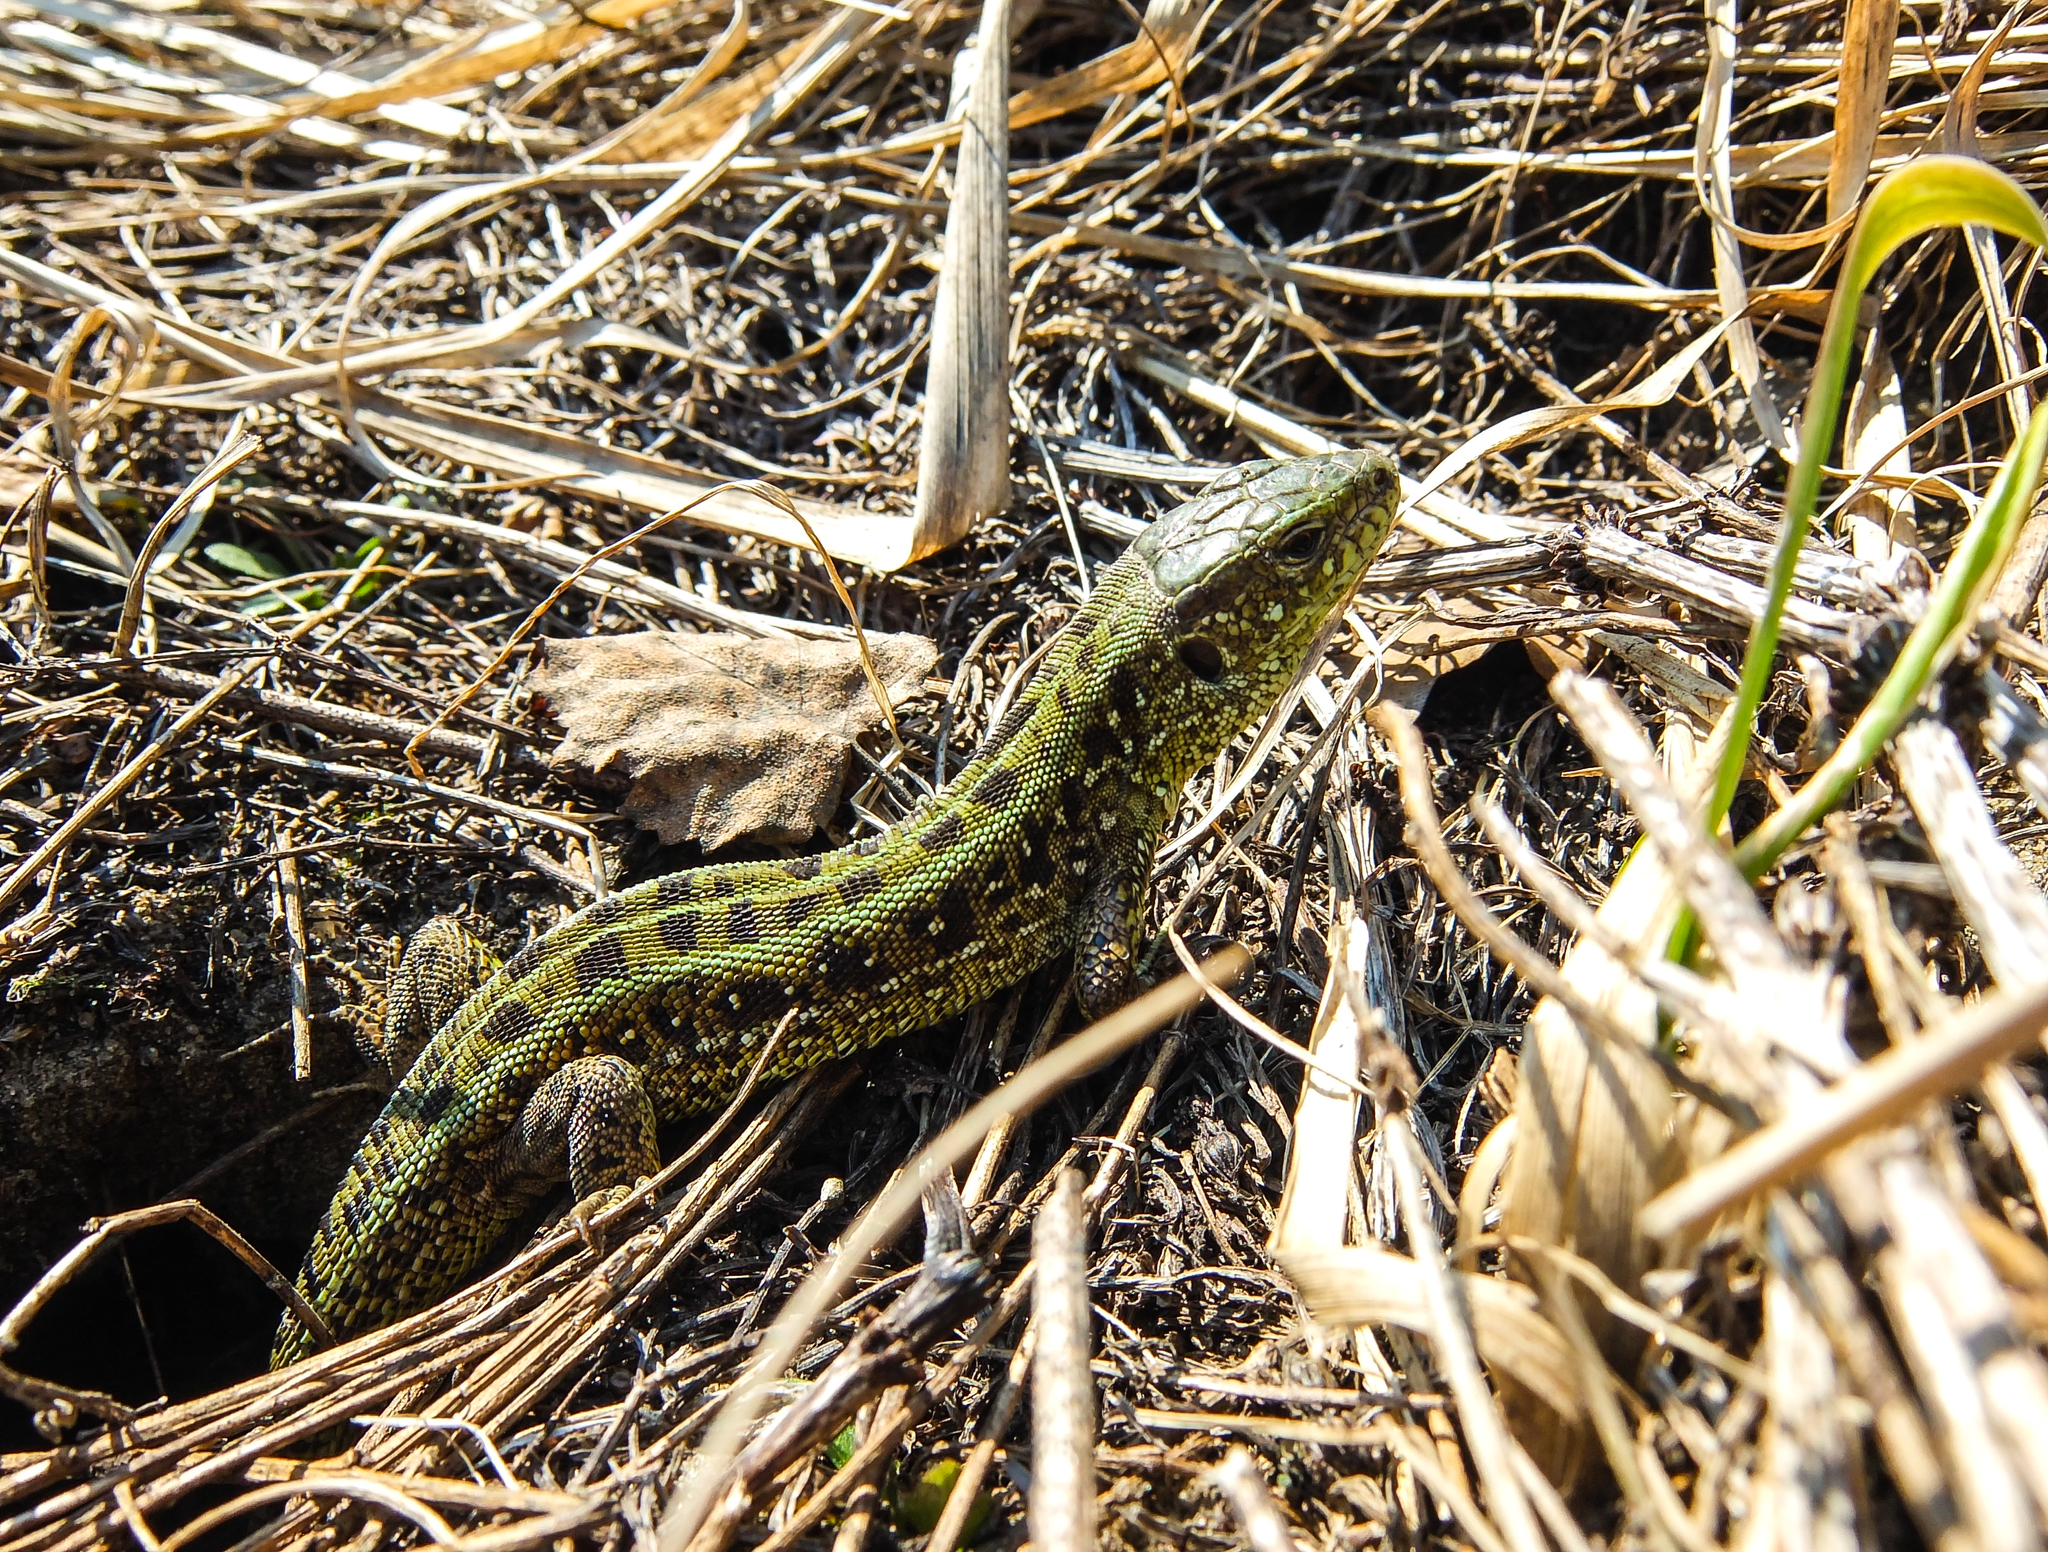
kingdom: Animalia
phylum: Chordata
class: Squamata
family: Lacertidae
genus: Lacerta
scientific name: Lacerta agilis
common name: Sand lizard
